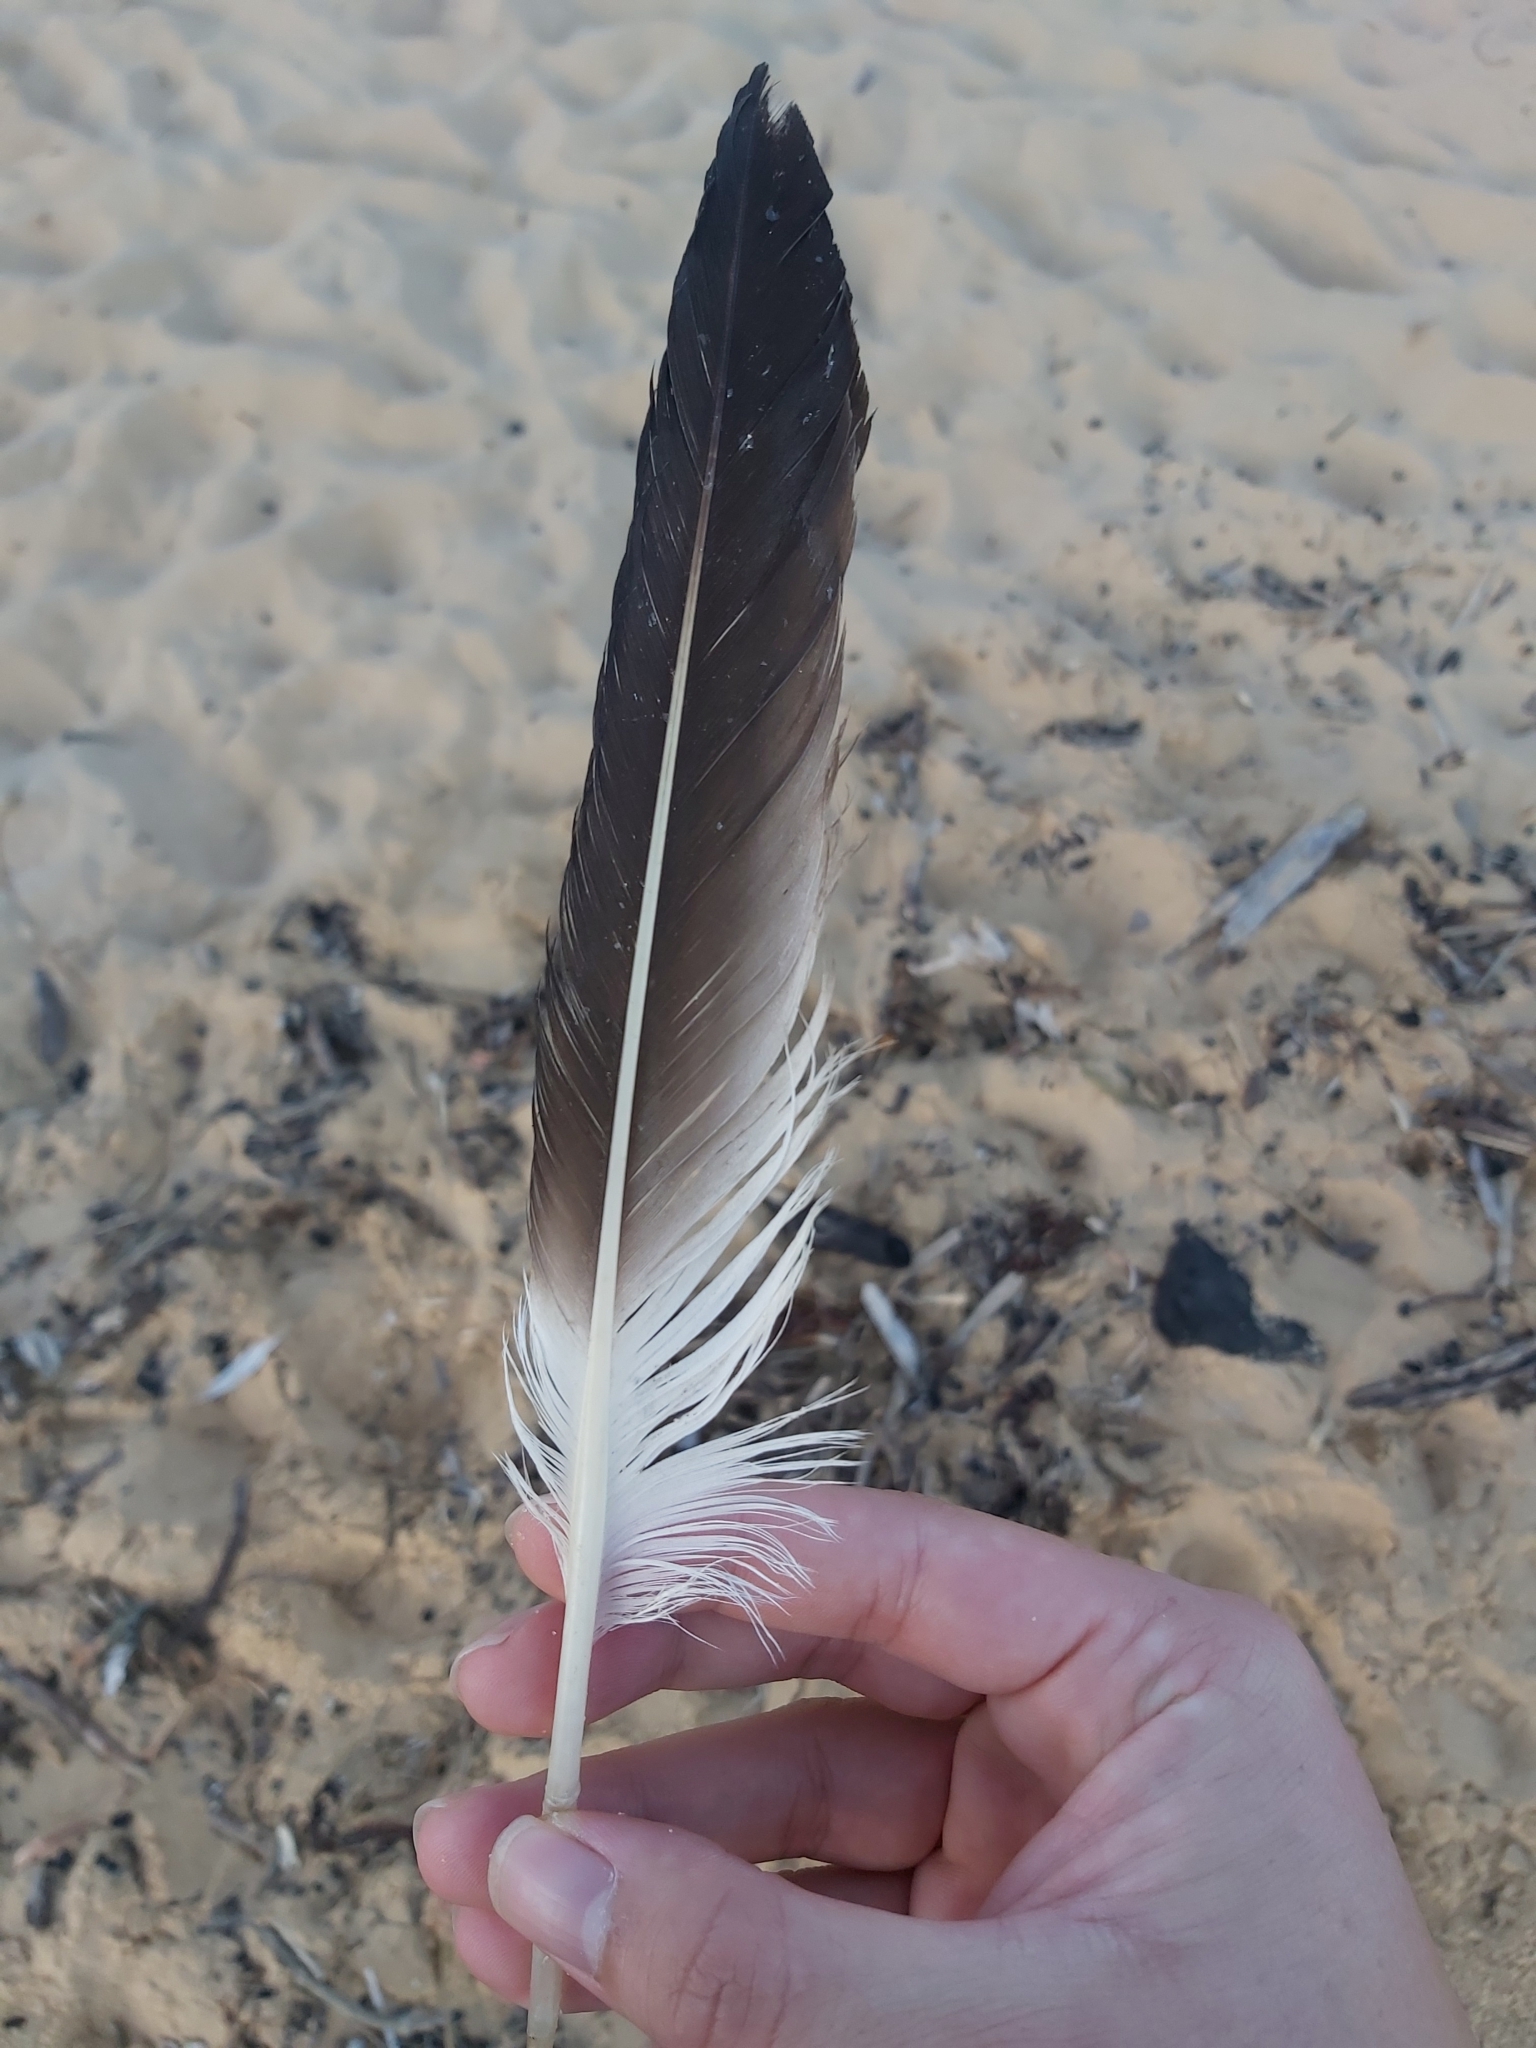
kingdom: Animalia
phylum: Chordata
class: Aves
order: Suliformes
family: Sulidae
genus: Morus
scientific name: Morus serrator
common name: Australasian gannet
